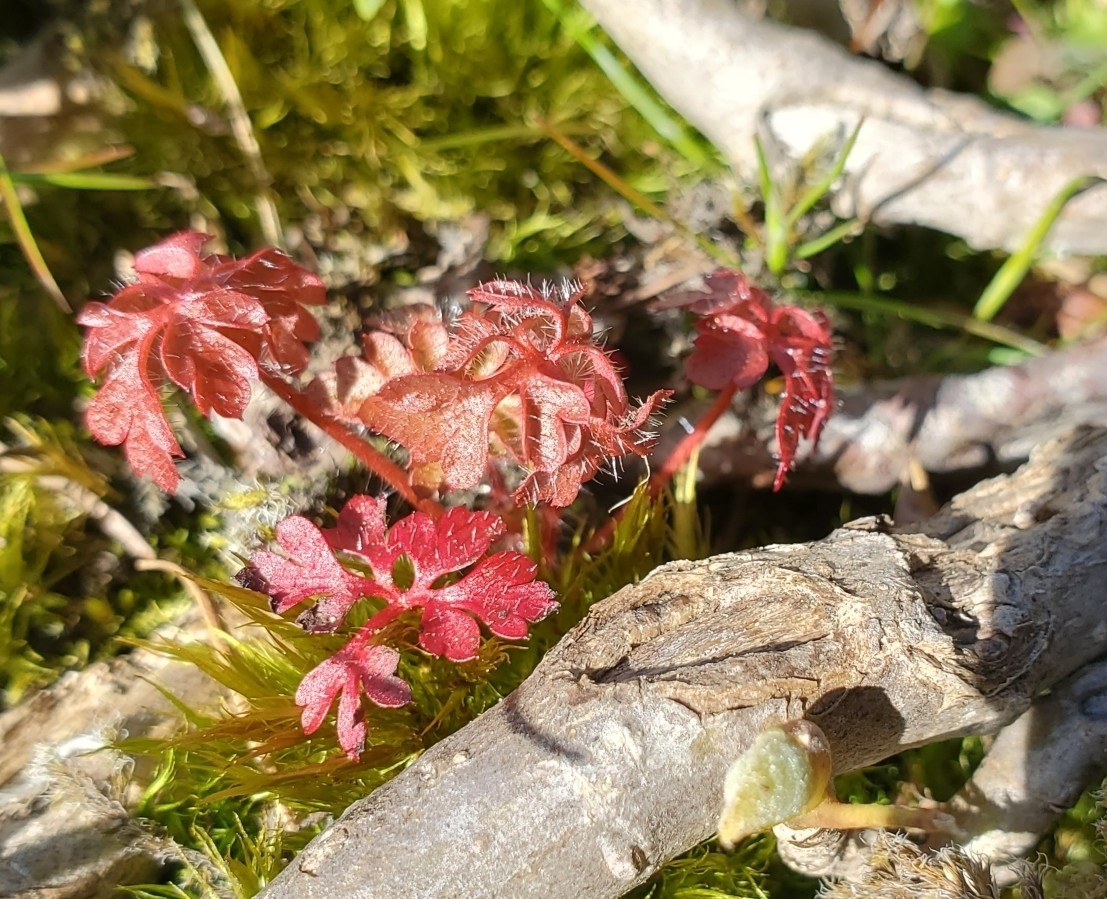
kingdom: Plantae
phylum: Tracheophyta
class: Magnoliopsida
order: Geraniales
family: Geraniaceae
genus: Geranium
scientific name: Geranium robertianum
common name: Herb-robert
